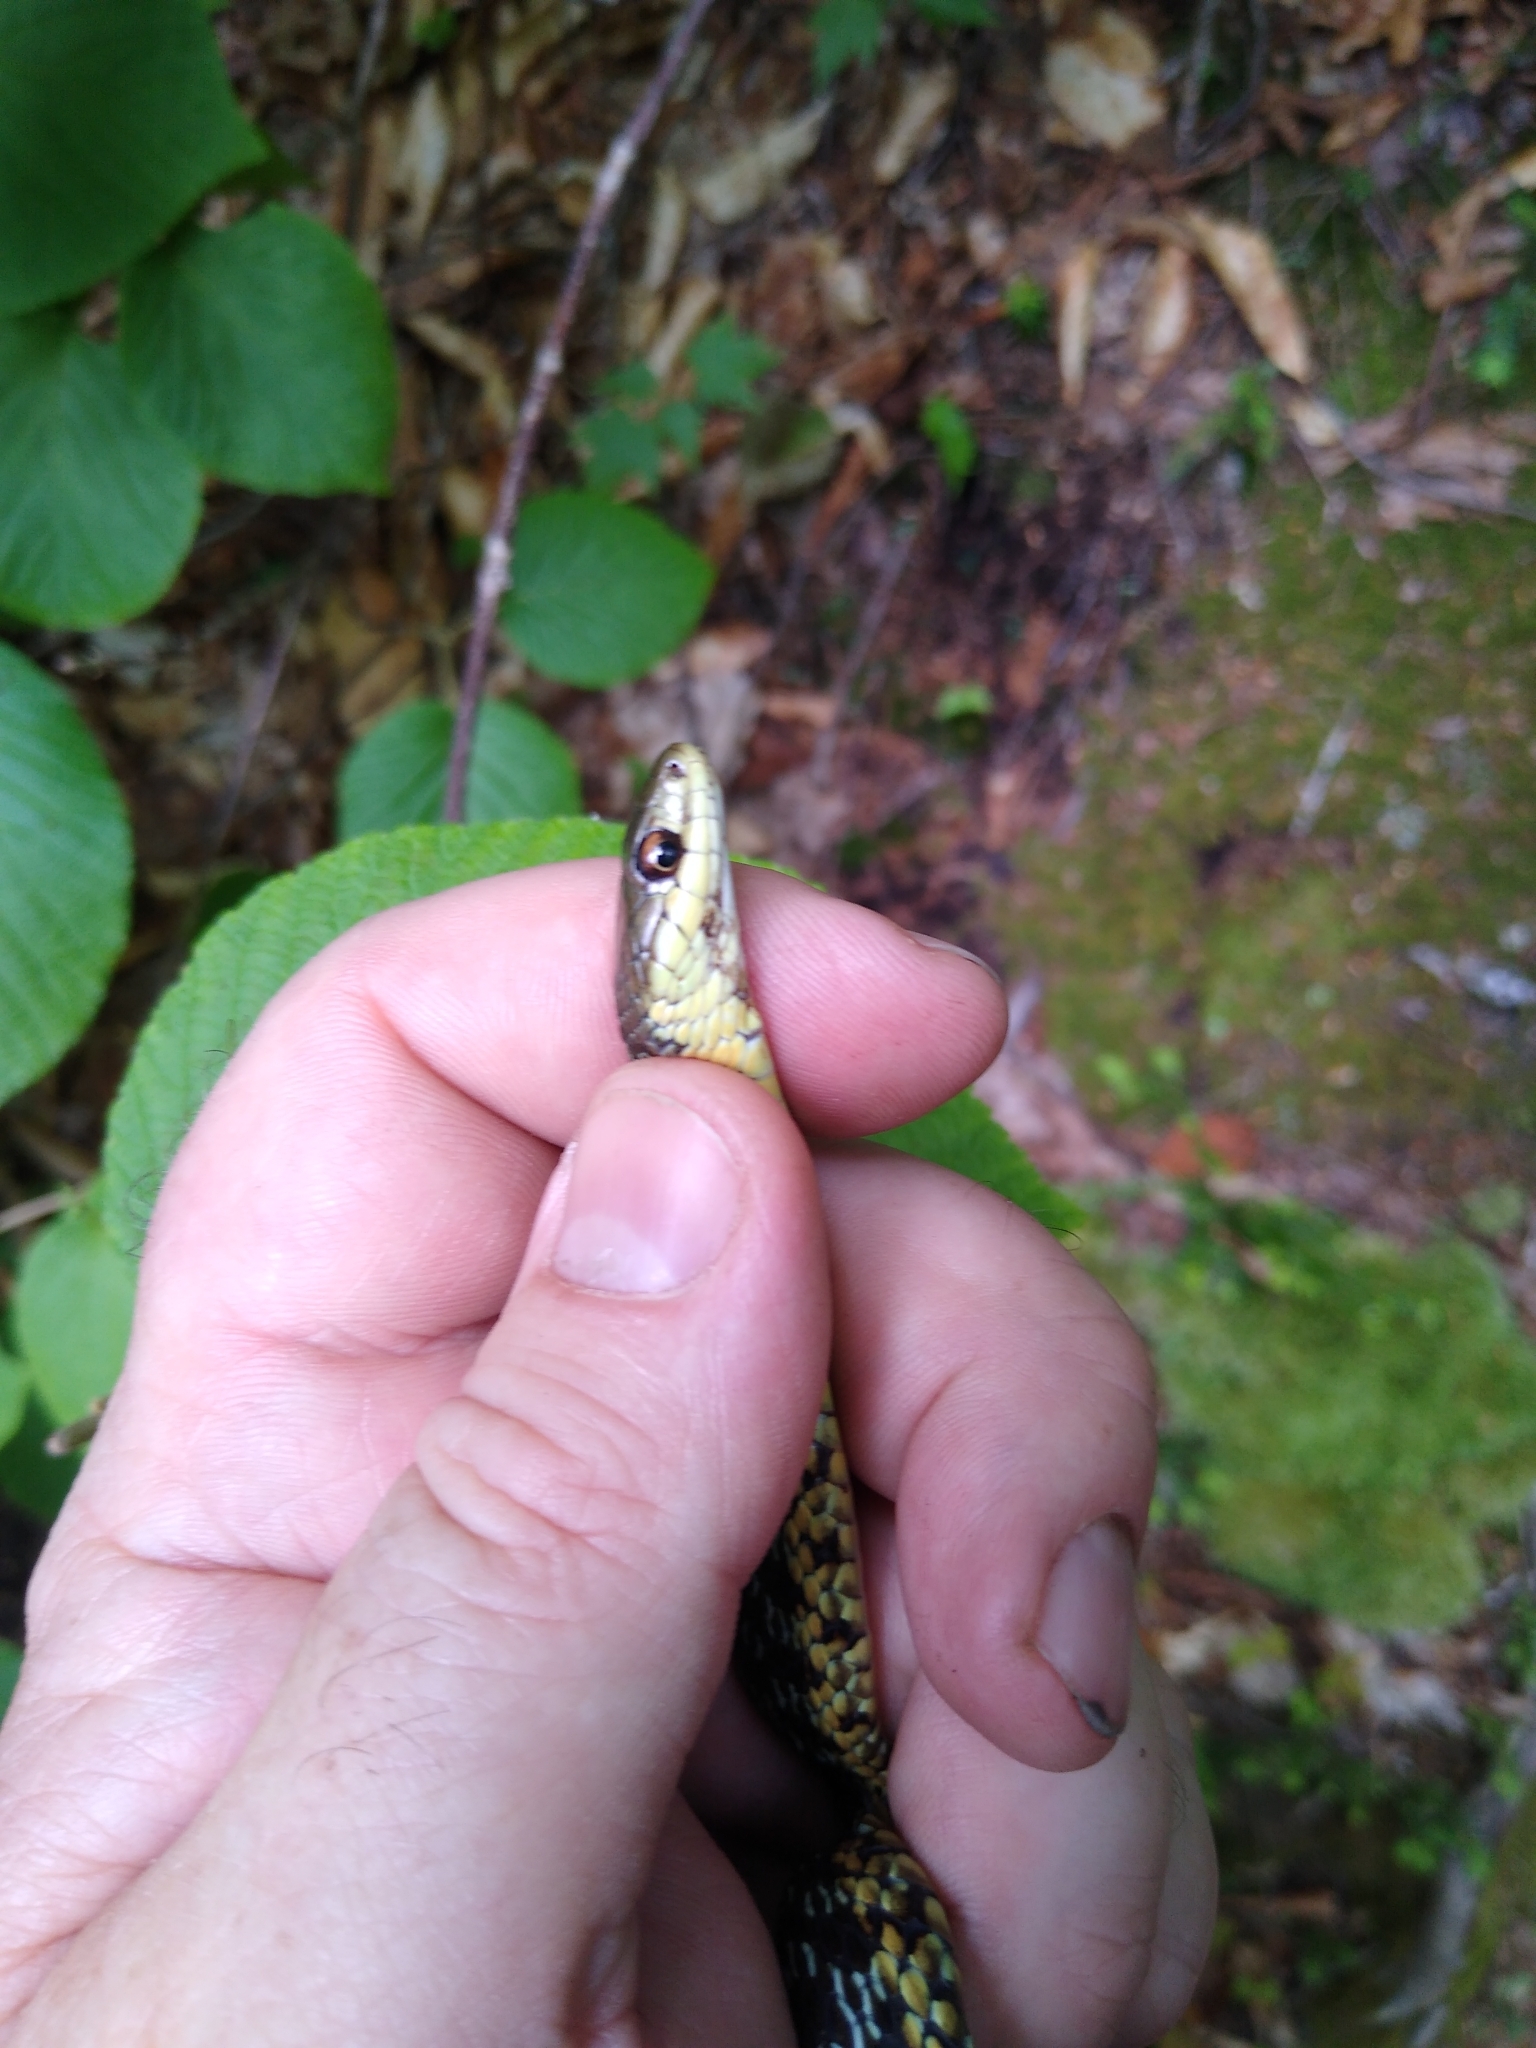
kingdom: Animalia
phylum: Chordata
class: Squamata
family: Colubridae
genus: Thamnophis
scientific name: Thamnophis sirtalis
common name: Common garter snake
